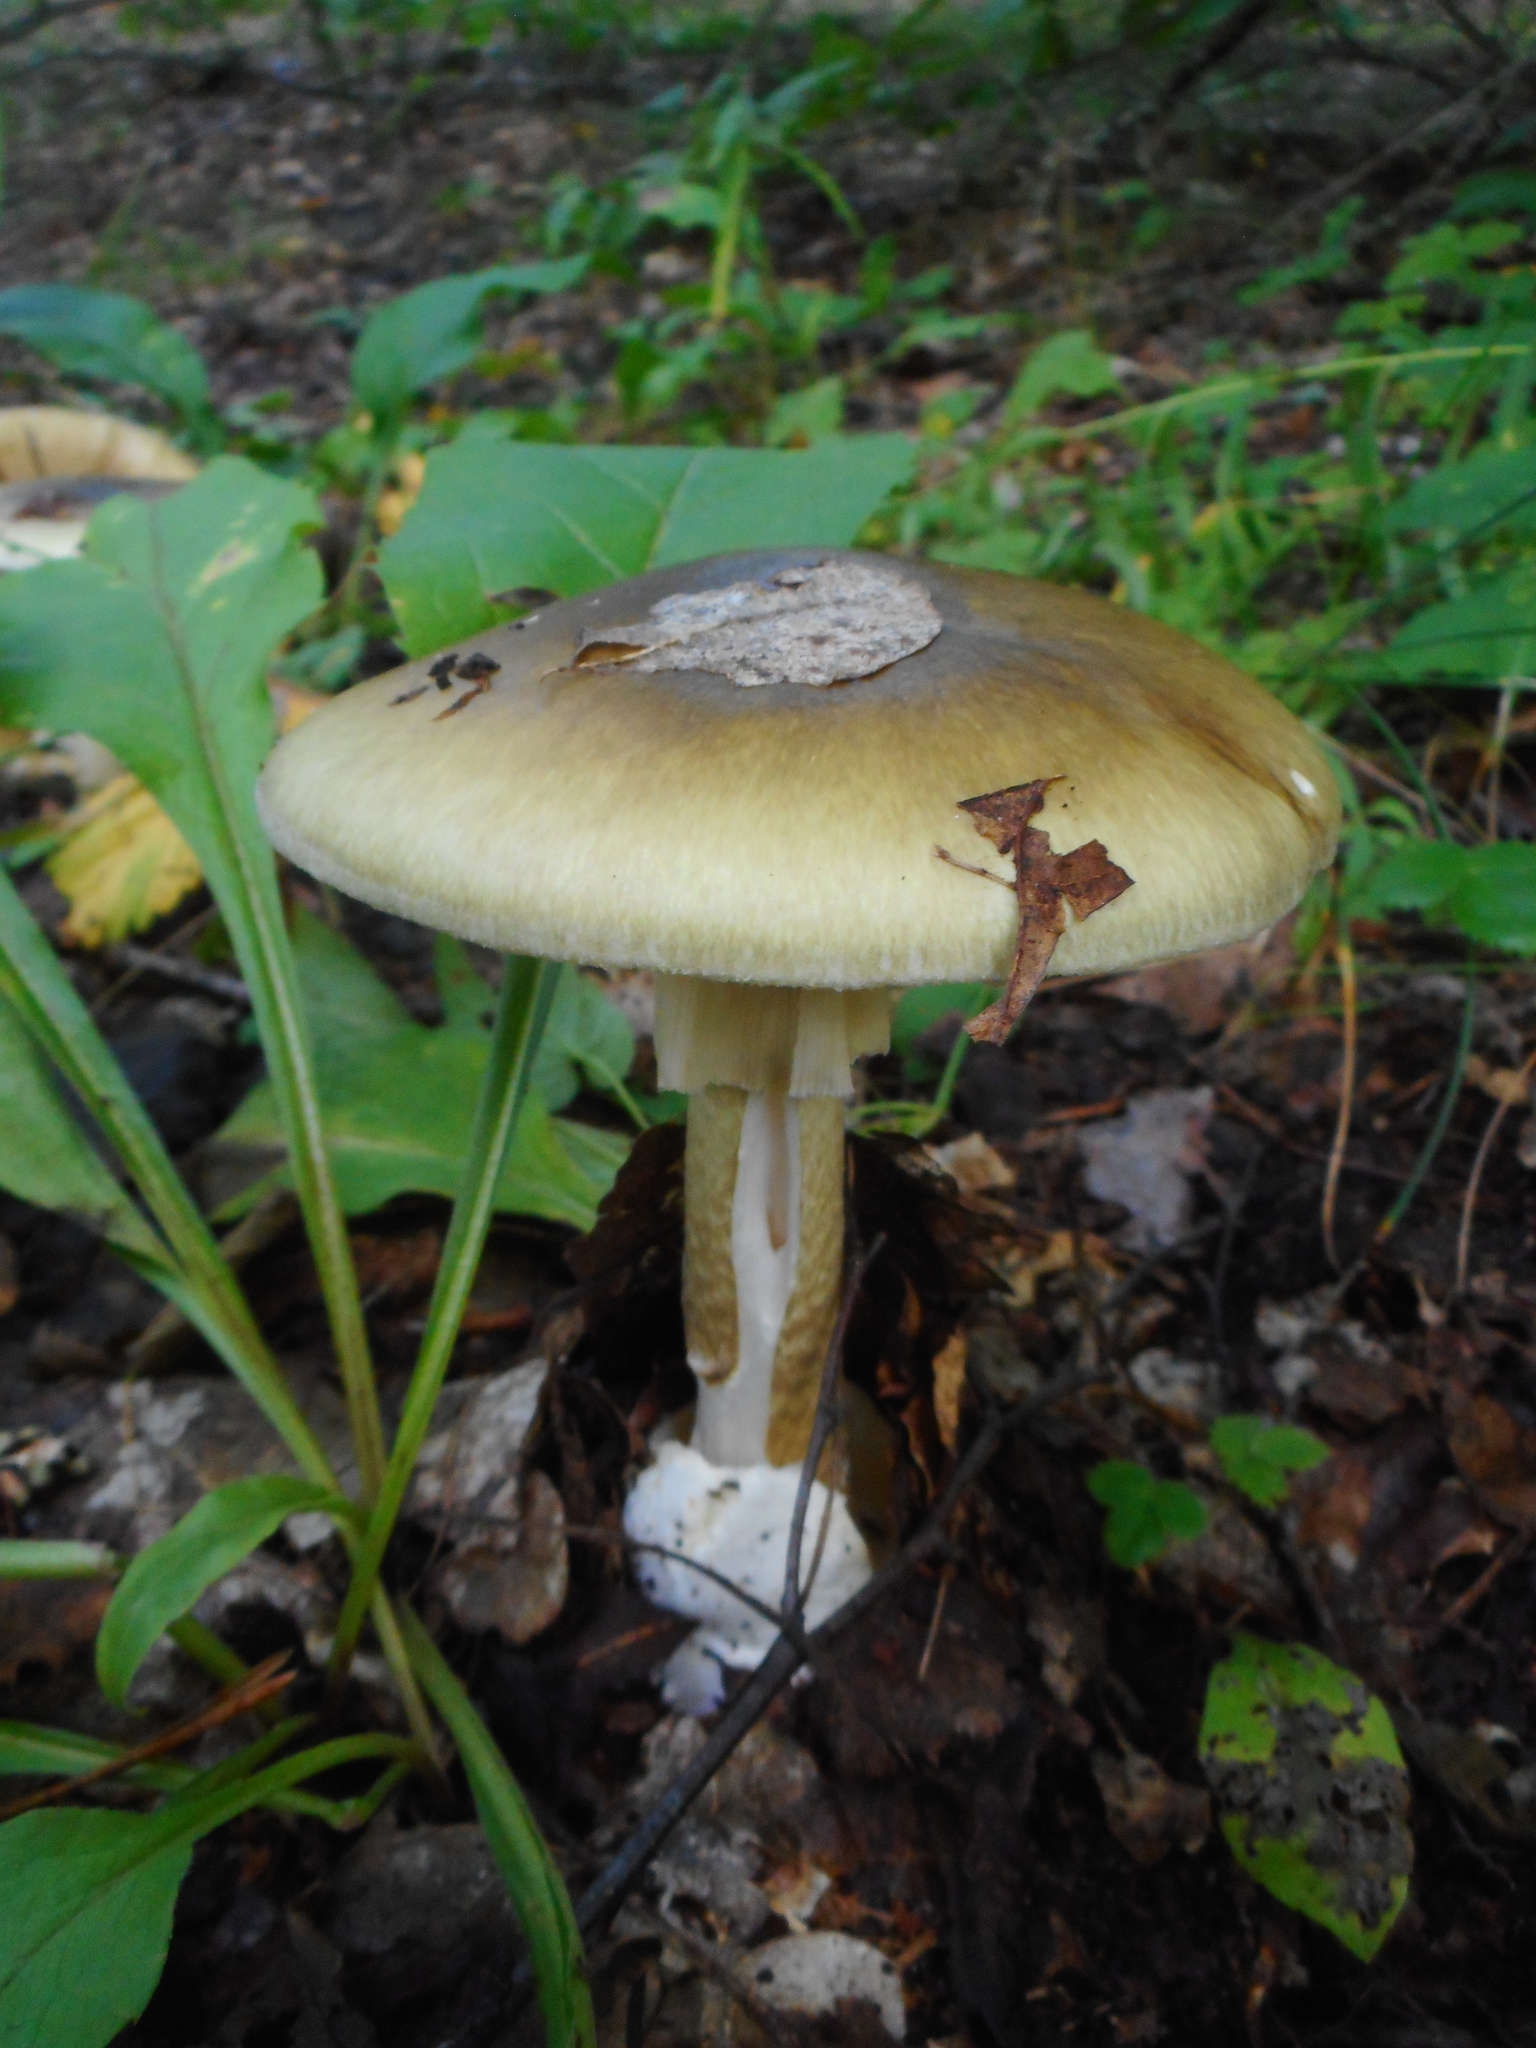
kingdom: Fungi
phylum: Basidiomycota
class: Agaricomycetes
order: Agaricales
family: Amanitaceae
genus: Amanita
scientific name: Amanita phalloides
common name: Death cap
